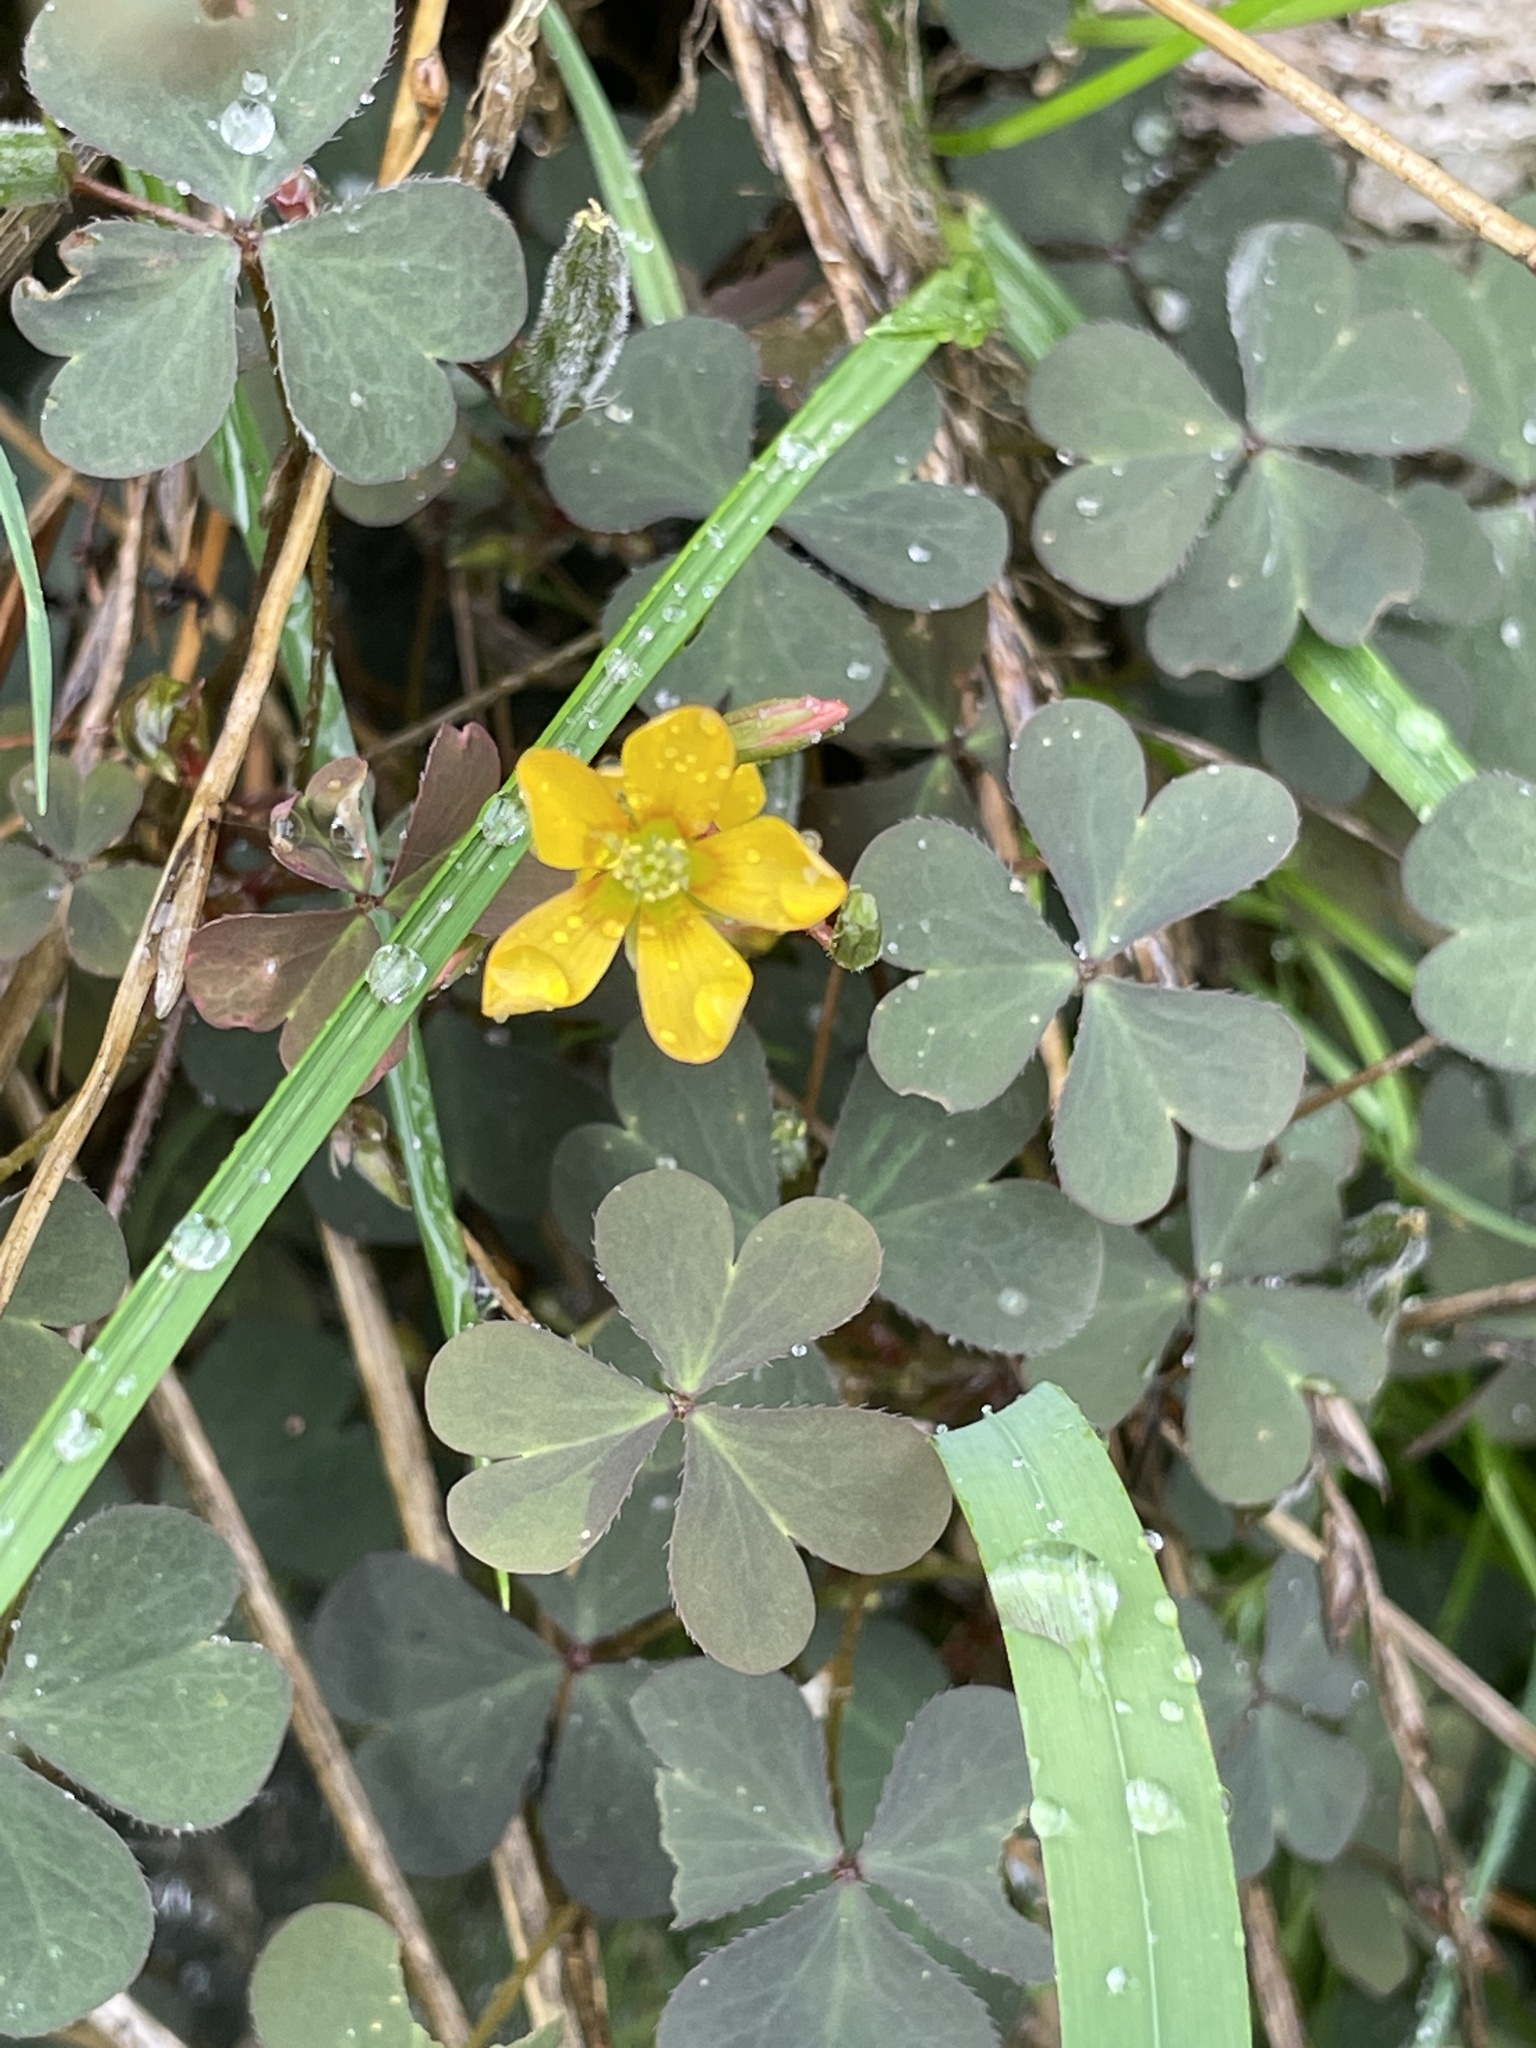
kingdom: Plantae
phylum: Tracheophyta
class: Magnoliopsida
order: Oxalidales
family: Oxalidaceae
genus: Oxalis
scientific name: Oxalis corniculata
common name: Procumbent yellow-sorrel
